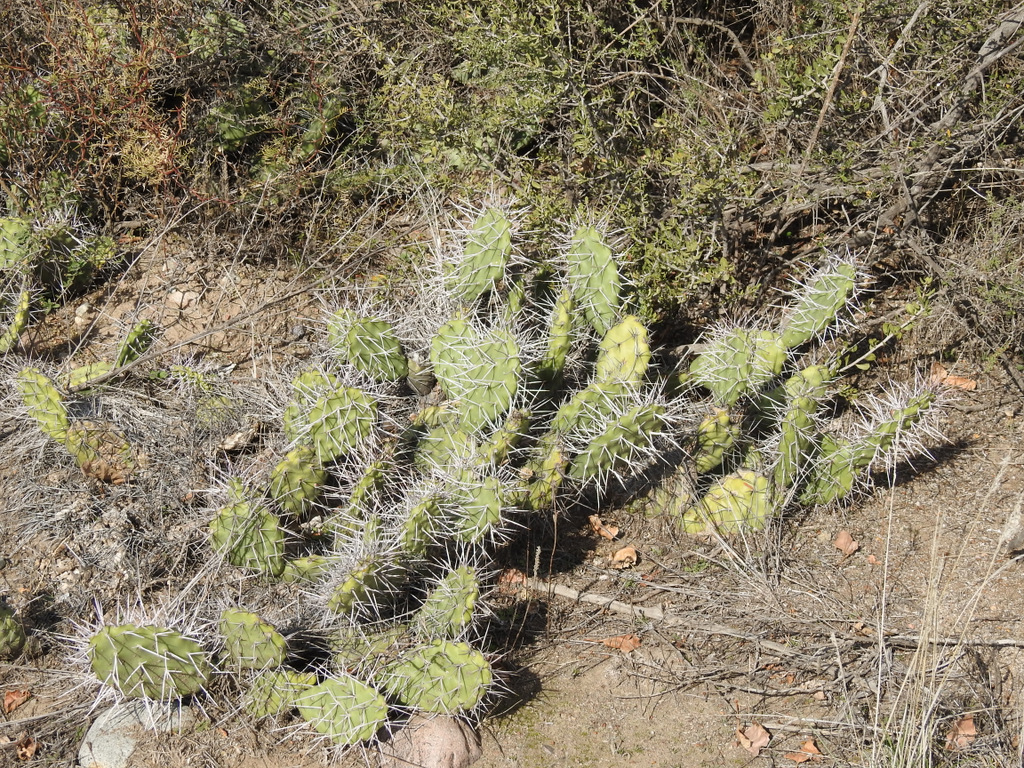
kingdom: Plantae
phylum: Tracheophyta
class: Magnoliopsida
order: Caryophyllales
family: Cactaceae
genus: Opuntia
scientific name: Opuntia sulphurea
